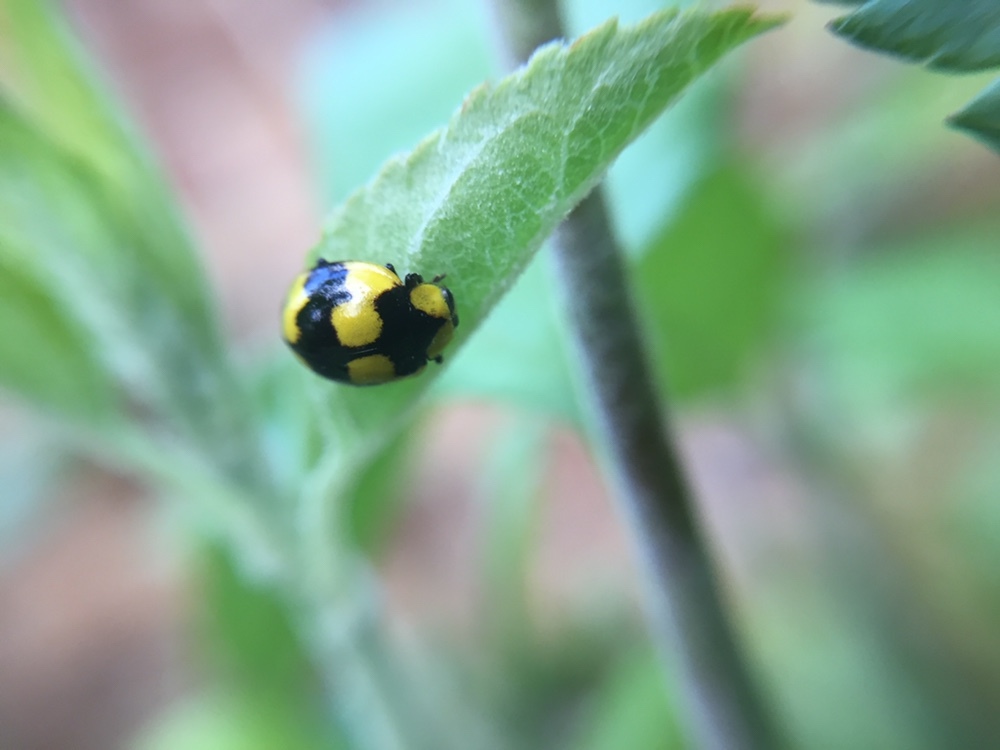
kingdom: Animalia
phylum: Arthropoda
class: Insecta
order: Coleoptera
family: Coccinellidae
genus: Illeis
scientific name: Illeis galbula
